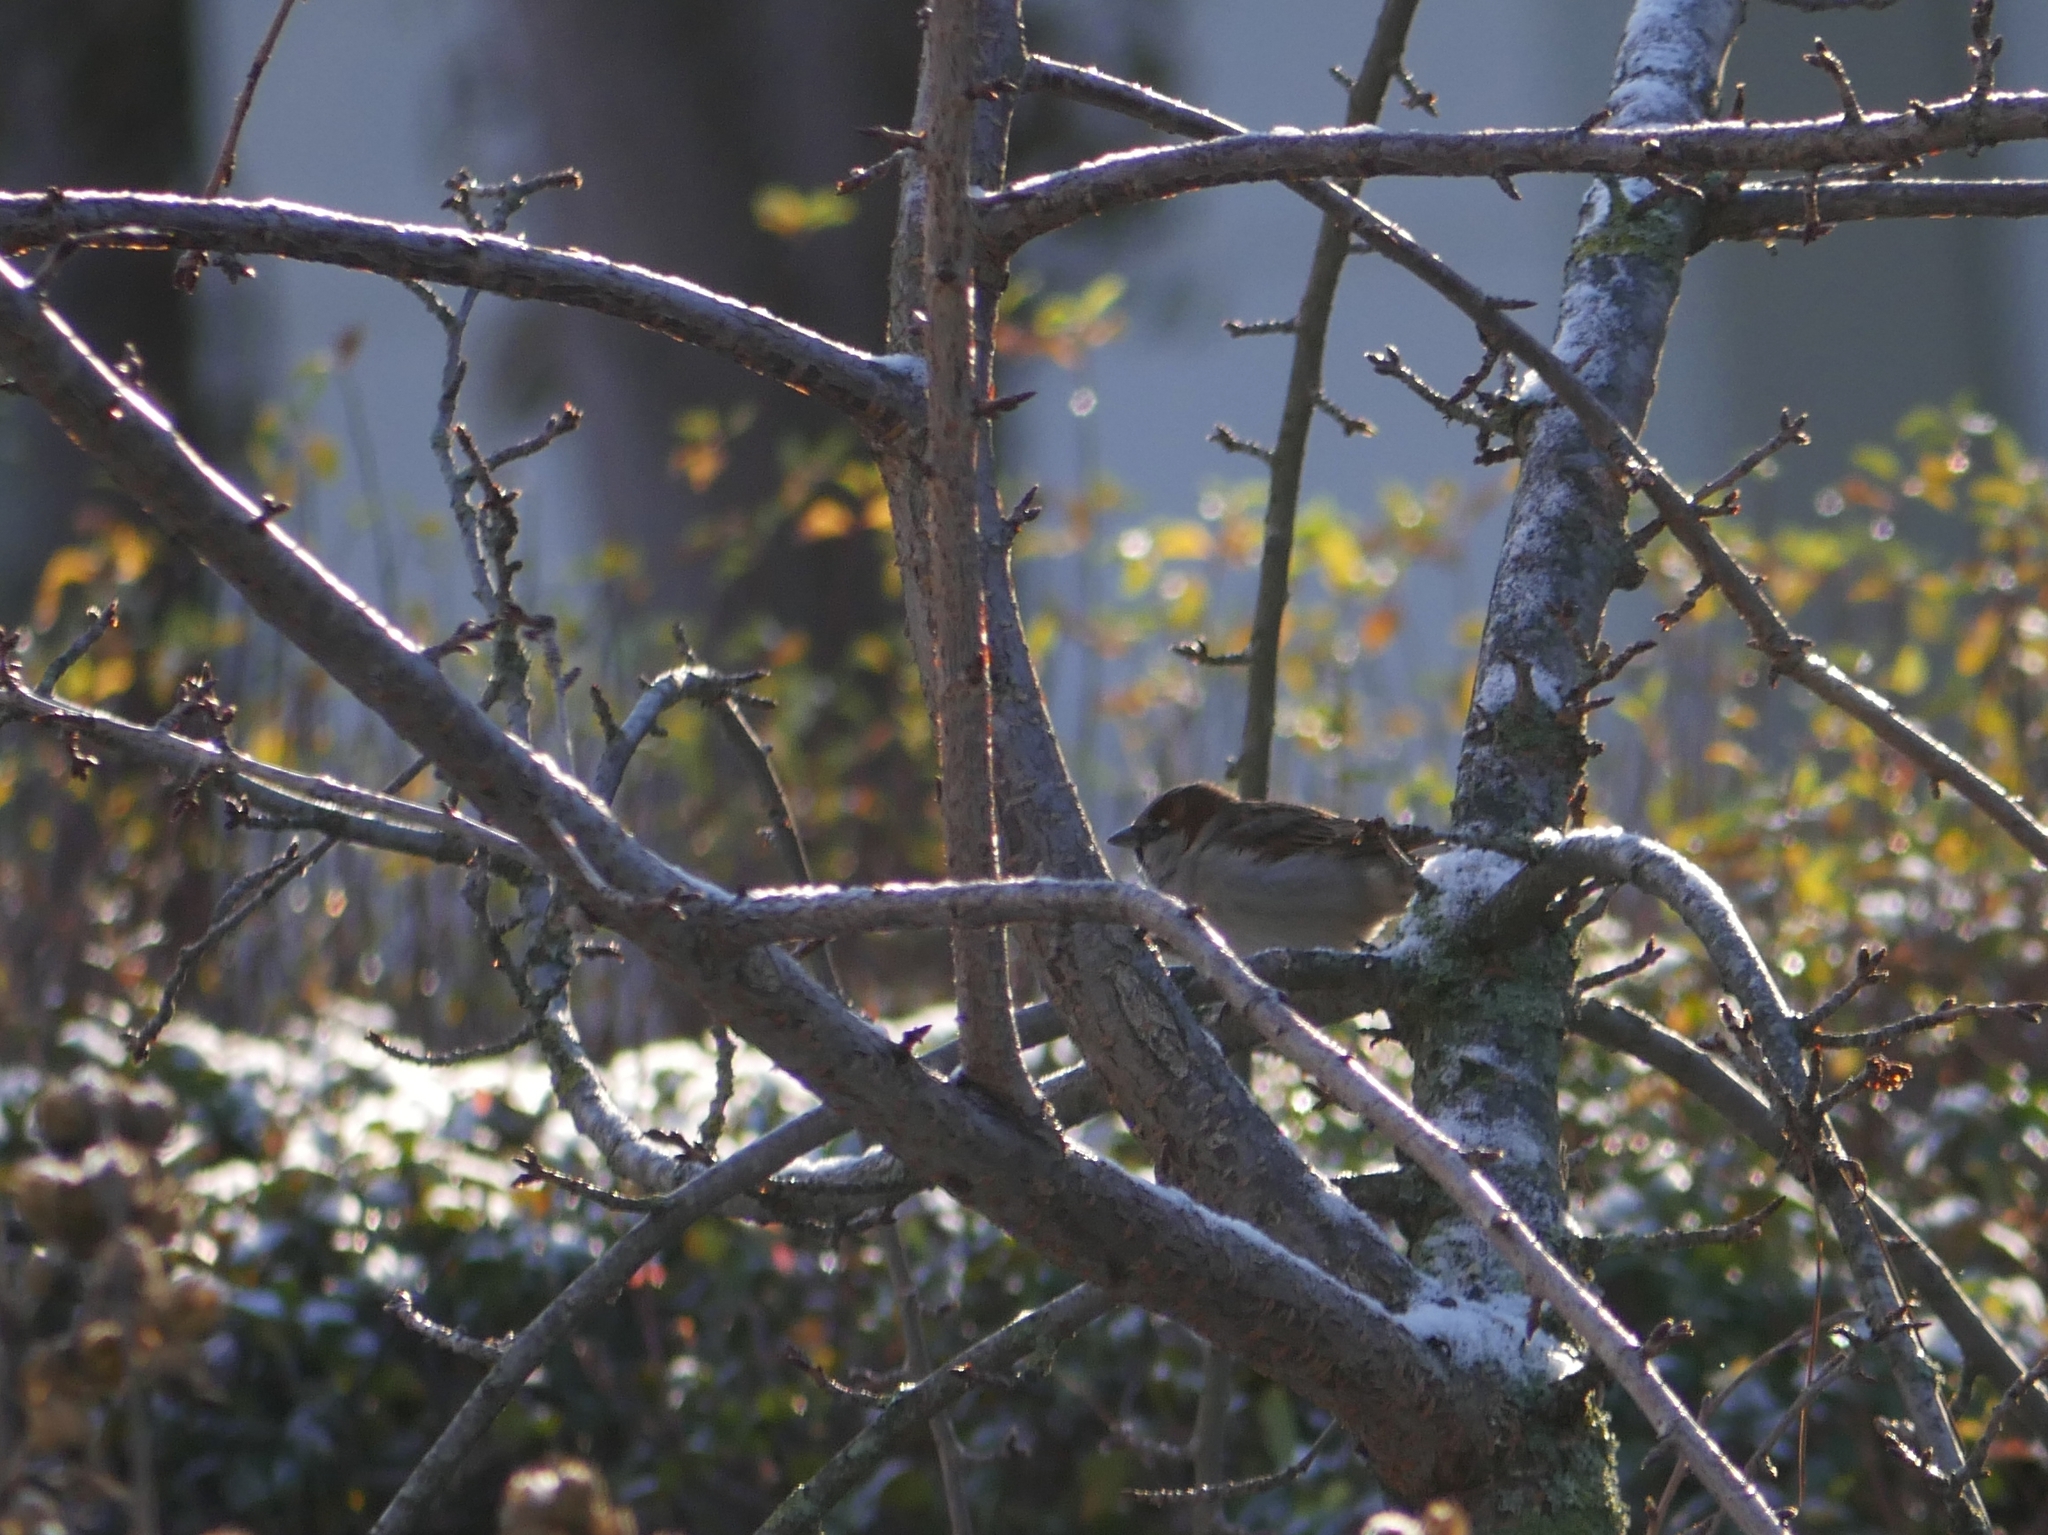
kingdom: Animalia
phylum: Chordata
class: Aves
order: Passeriformes
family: Passeridae
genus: Passer
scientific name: Passer domesticus
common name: House sparrow
